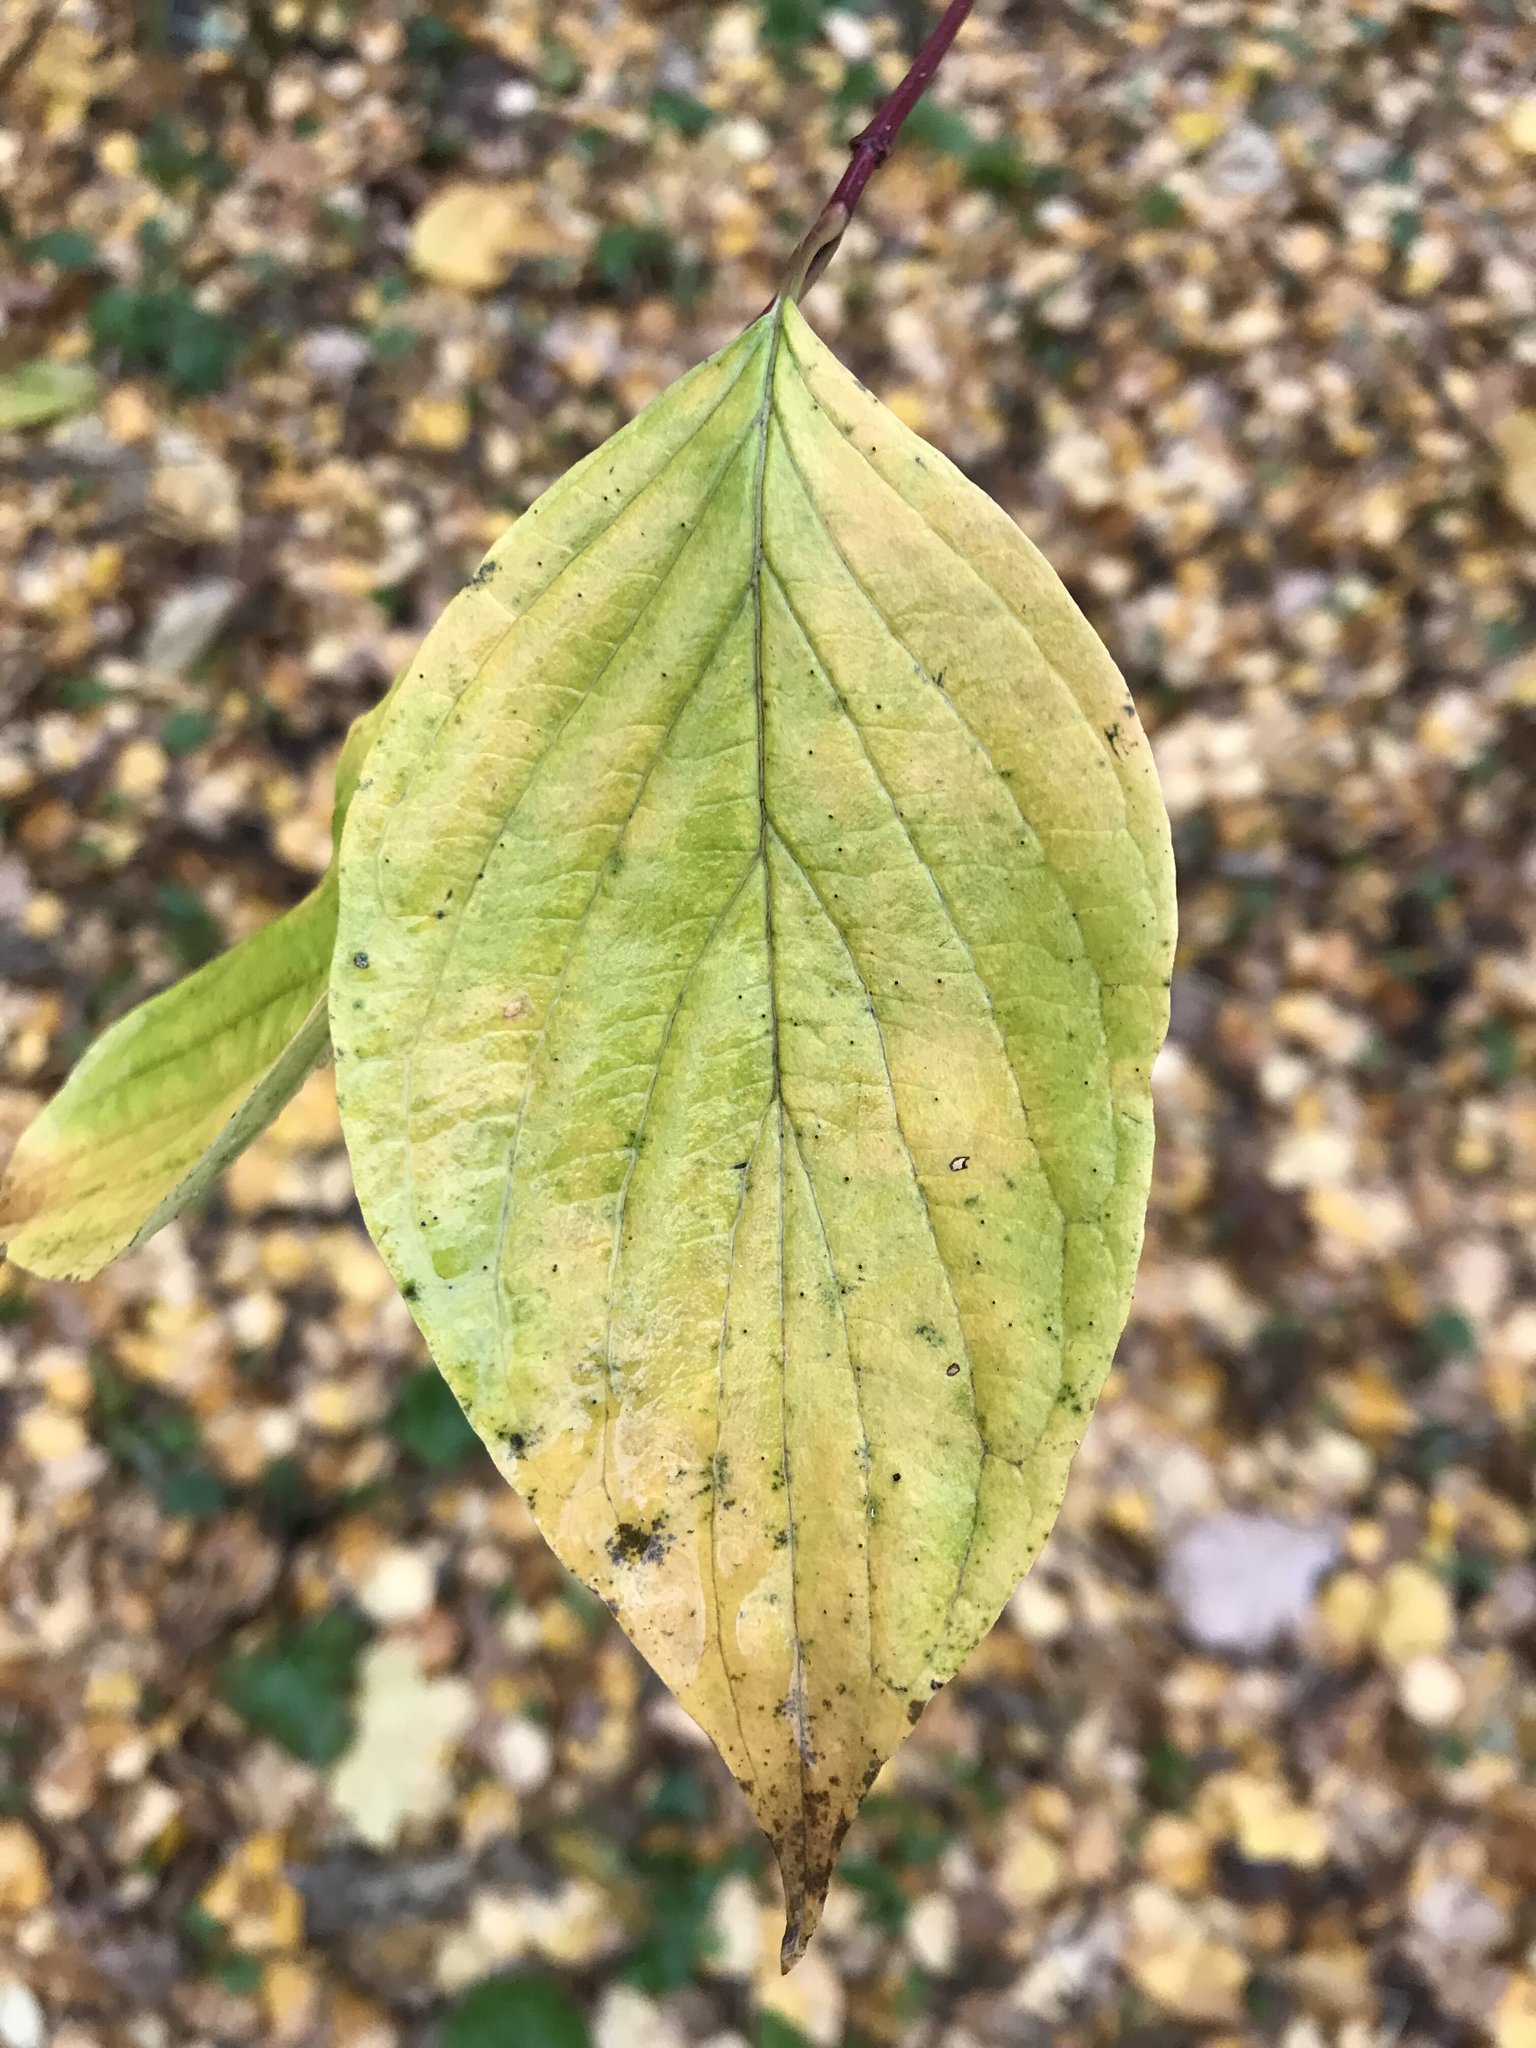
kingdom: Plantae
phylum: Tracheophyta
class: Magnoliopsida
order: Cornales
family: Cornaceae
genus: Cornus
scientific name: Cornus sericea
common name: Red-osier dogwood
